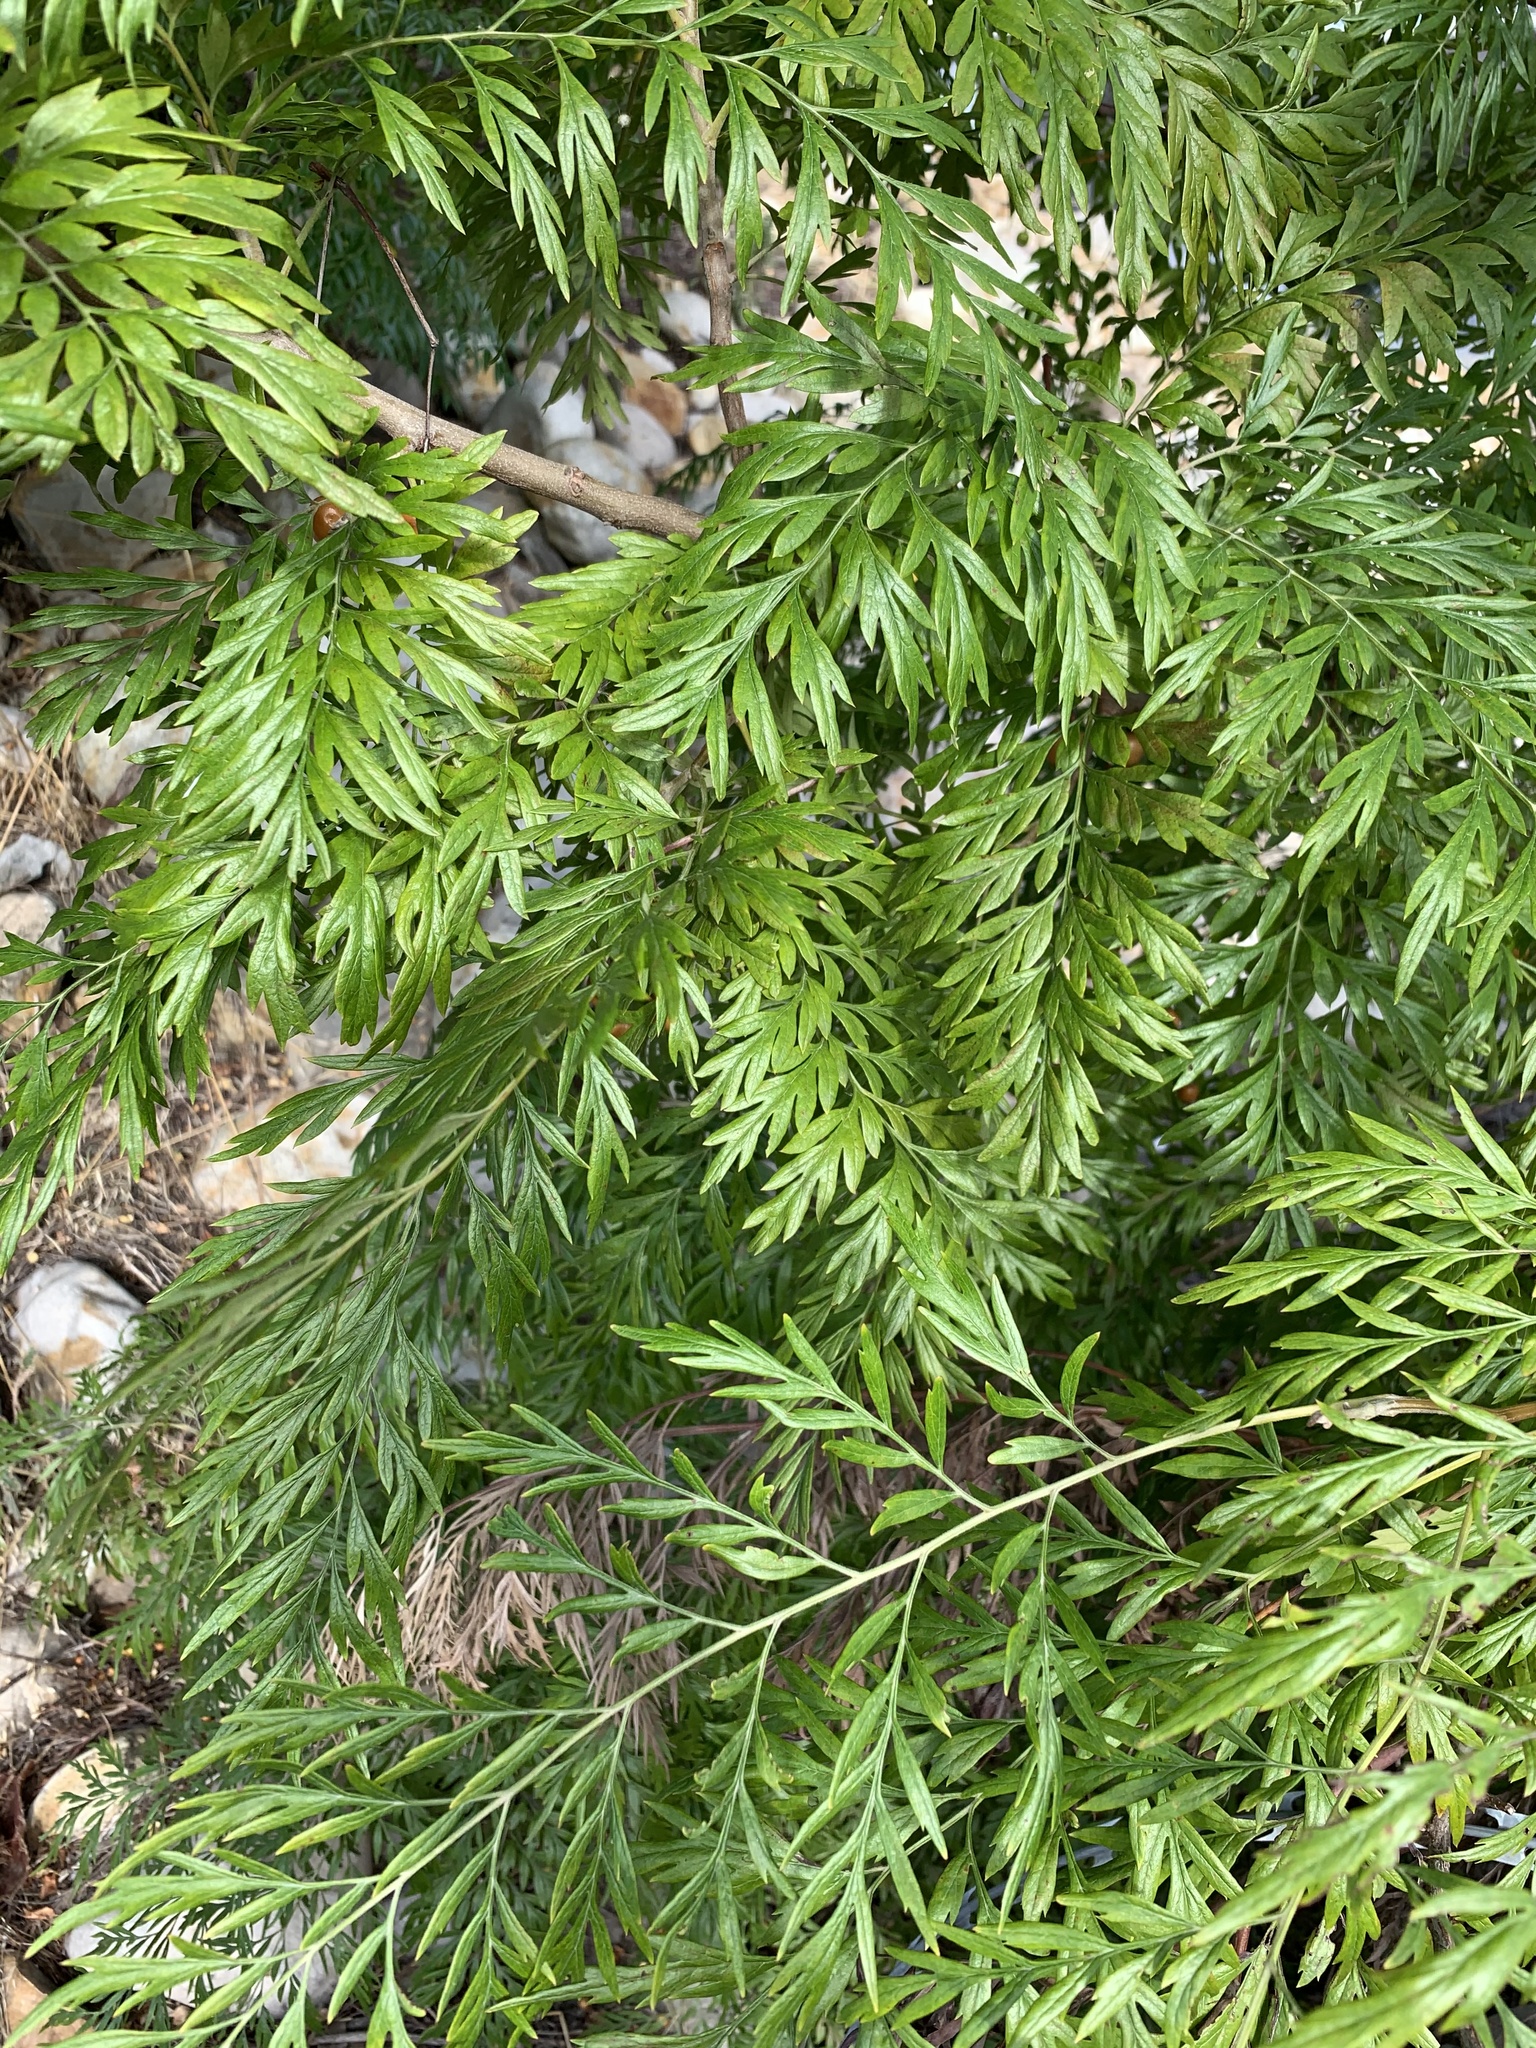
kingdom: Plantae
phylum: Tracheophyta
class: Magnoliopsida
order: Proteales
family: Proteaceae
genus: Grevillea
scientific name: Grevillea robusta
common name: Silkoak
